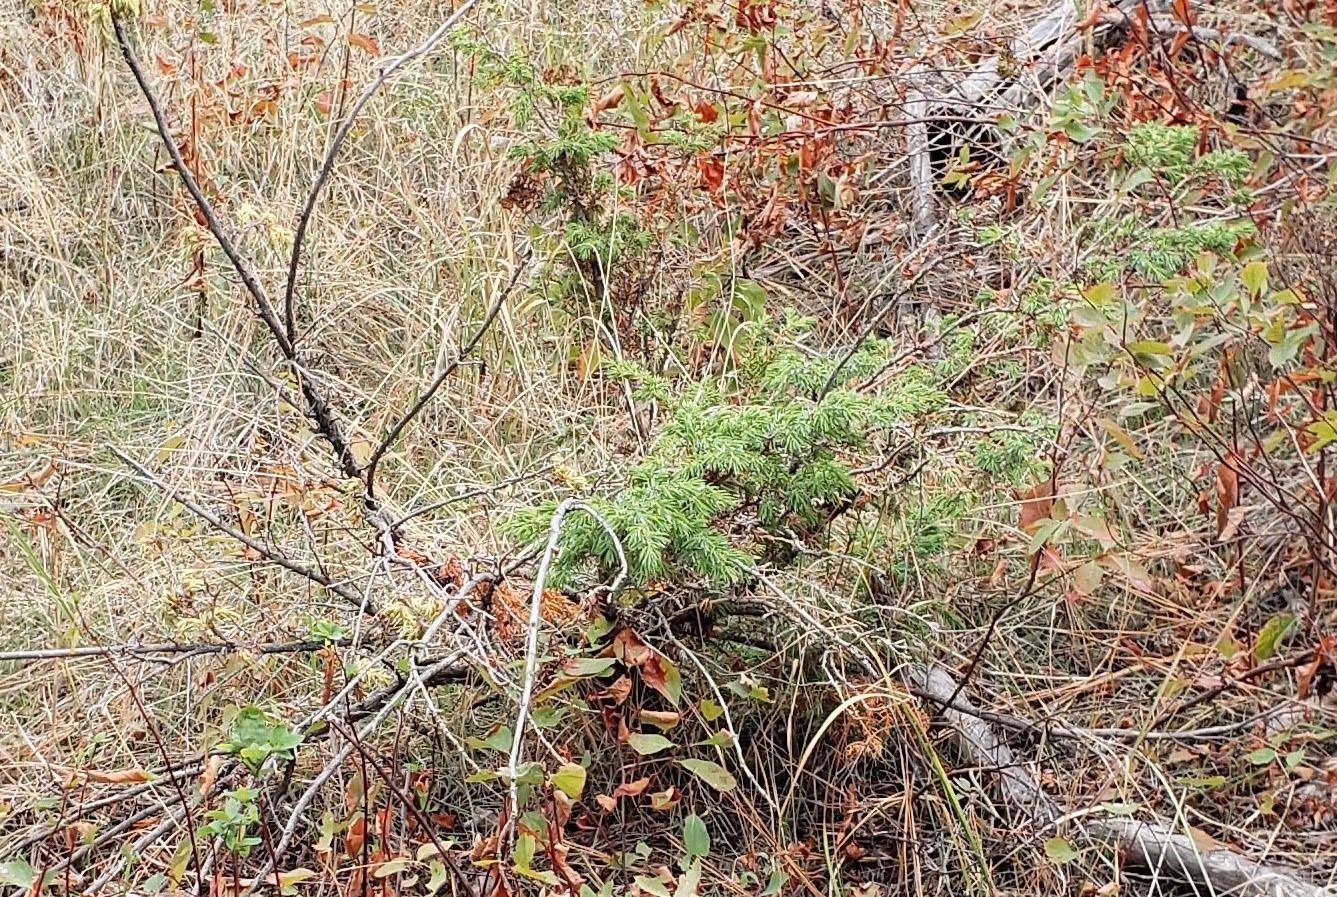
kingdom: Plantae
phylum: Tracheophyta
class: Pinopsida
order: Pinales
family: Cupressaceae
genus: Juniperus
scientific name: Juniperus communis
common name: Common juniper
